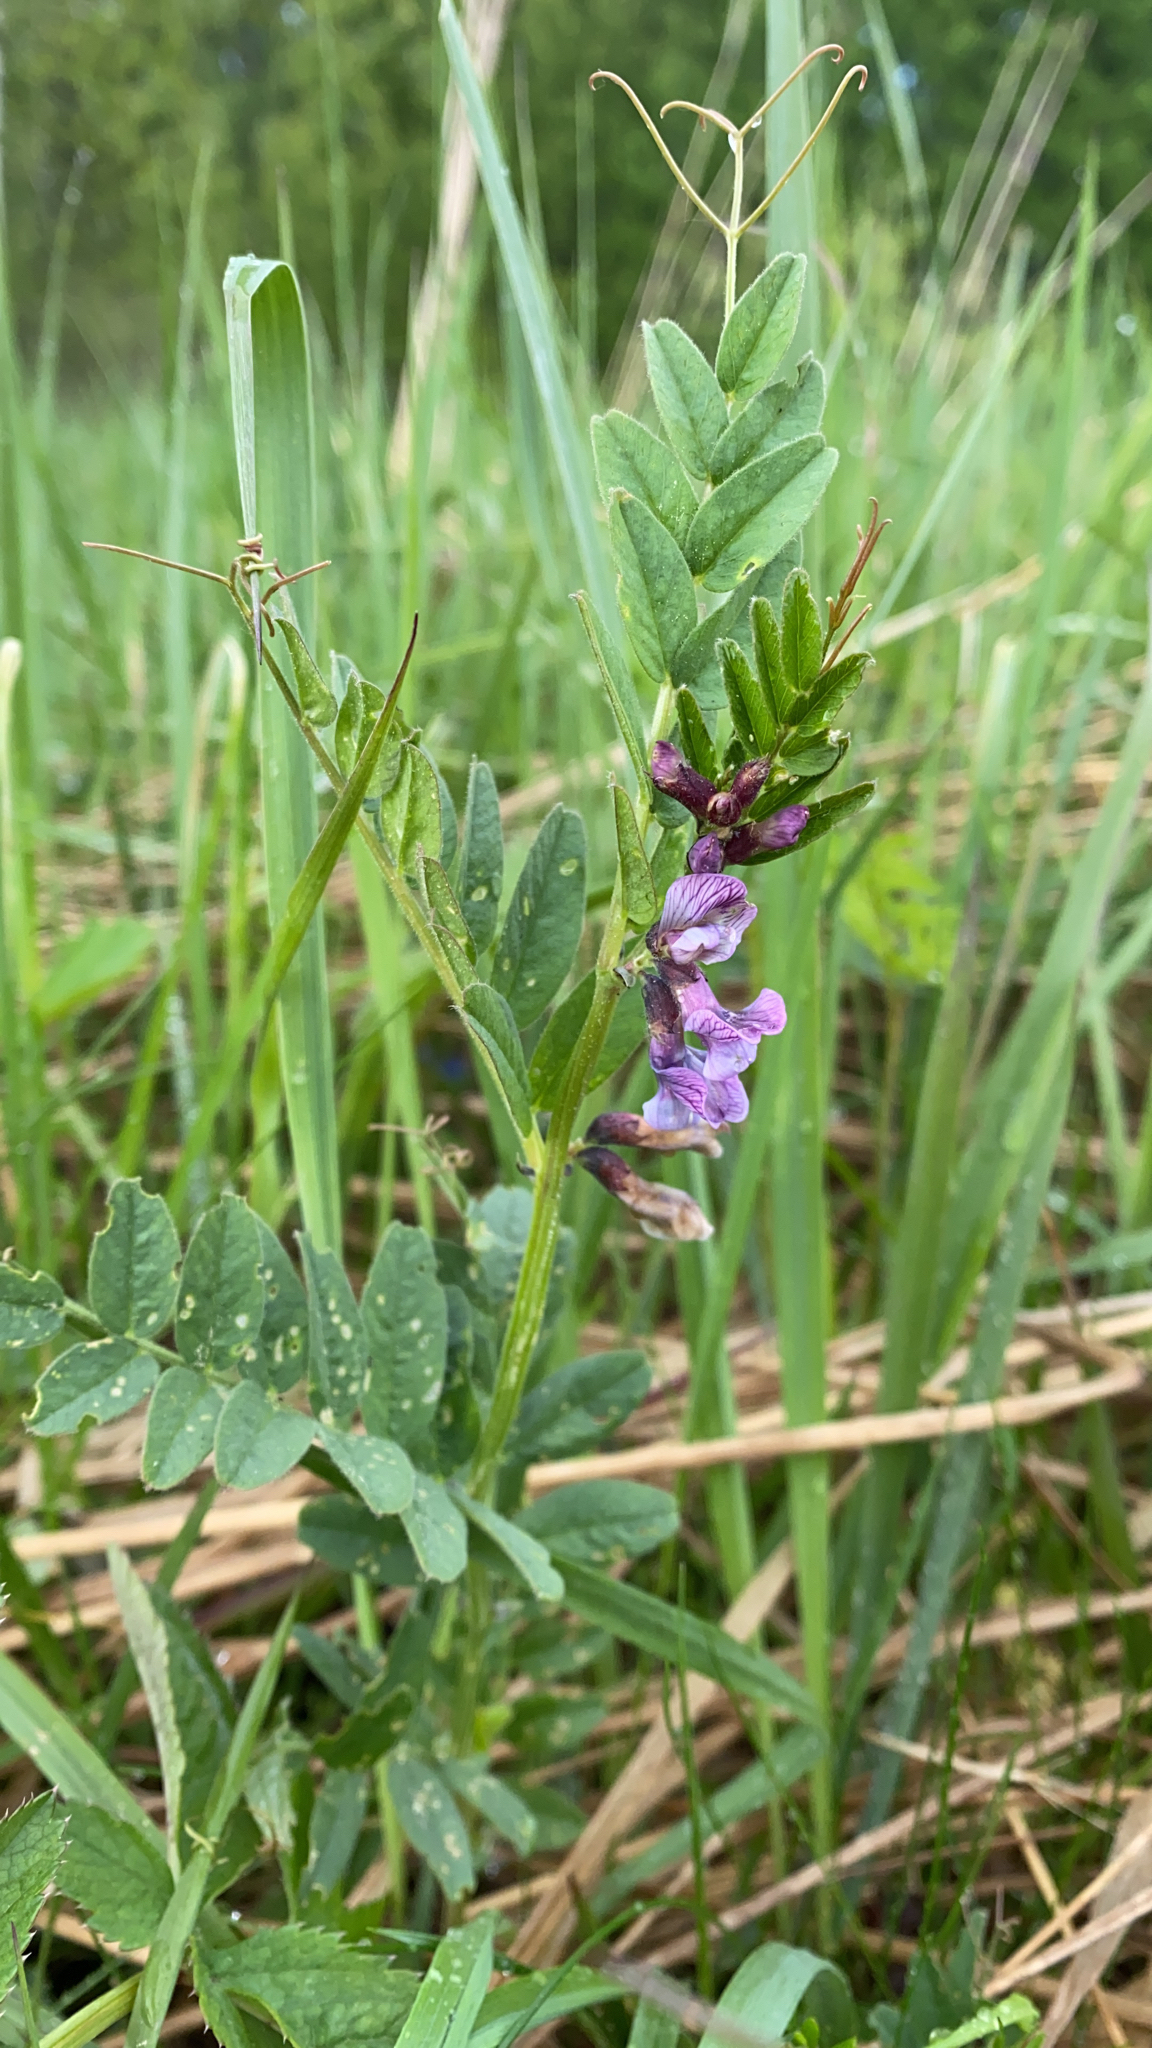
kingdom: Plantae
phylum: Tracheophyta
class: Magnoliopsida
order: Fabales
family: Fabaceae
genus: Vicia
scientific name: Vicia sepium
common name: Bush vetch
